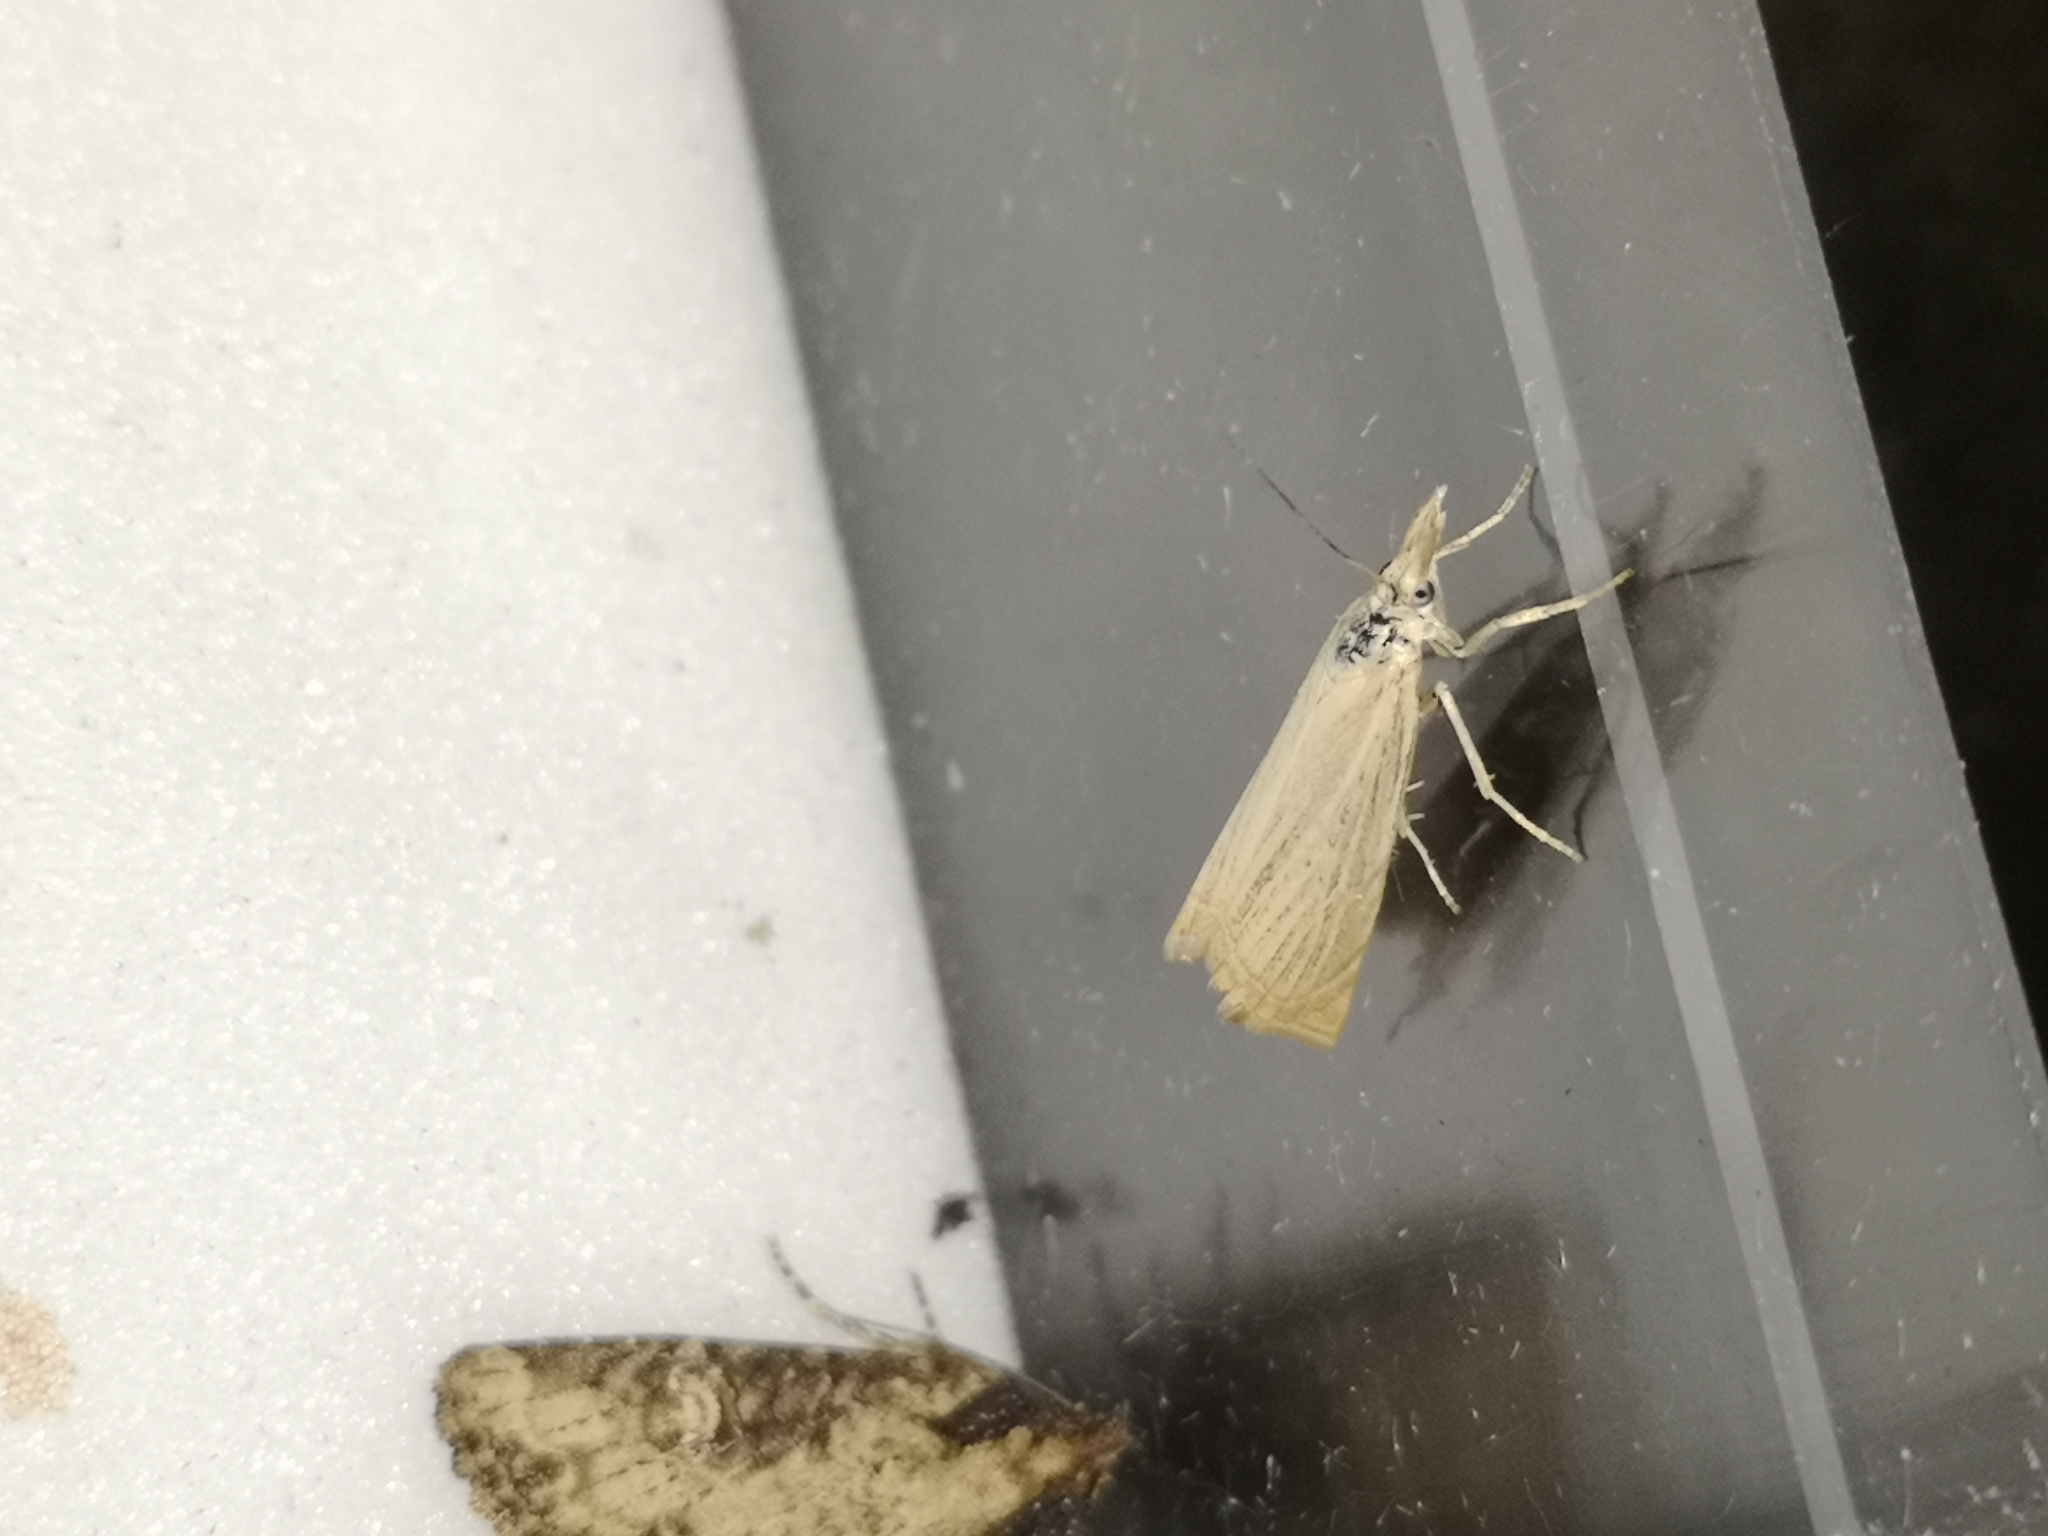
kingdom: Animalia
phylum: Arthropoda
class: Insecta
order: Lepidoptera
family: Crambidae
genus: Chrysoteuchia
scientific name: Chrysoteuchia culmella
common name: Garden grass-veneer
